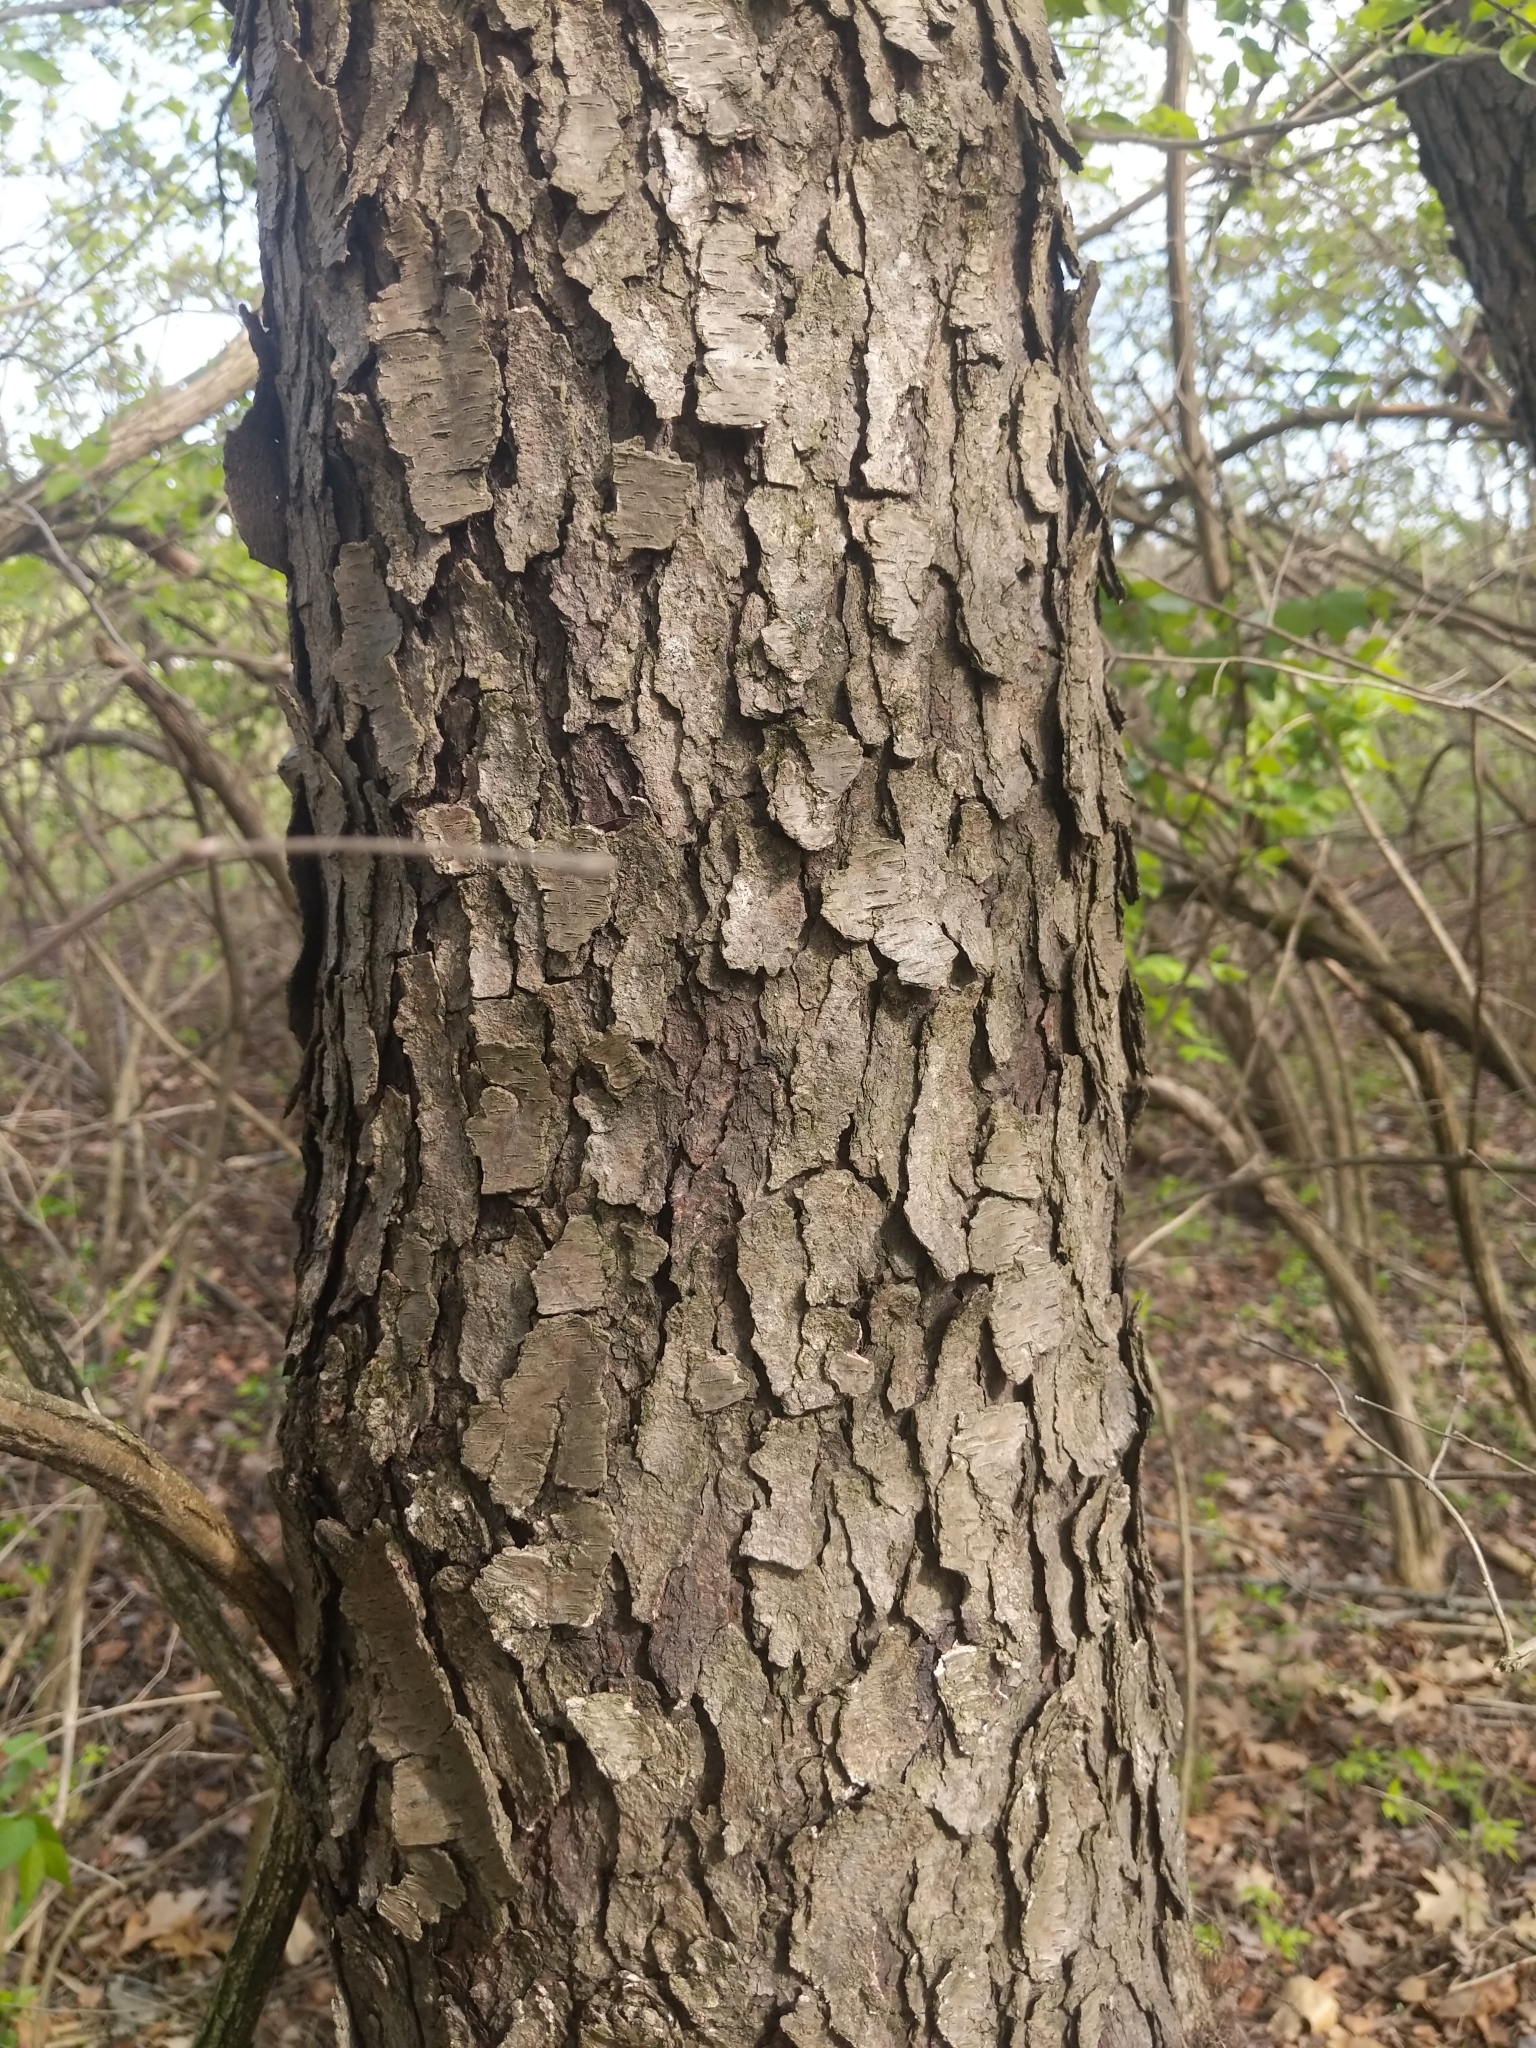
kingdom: Plantae
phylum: Tracheophyta
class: Magnoliopsida
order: Rosales
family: Rosaceae
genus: Prunus
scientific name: Prunus serotina
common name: Black cherry
